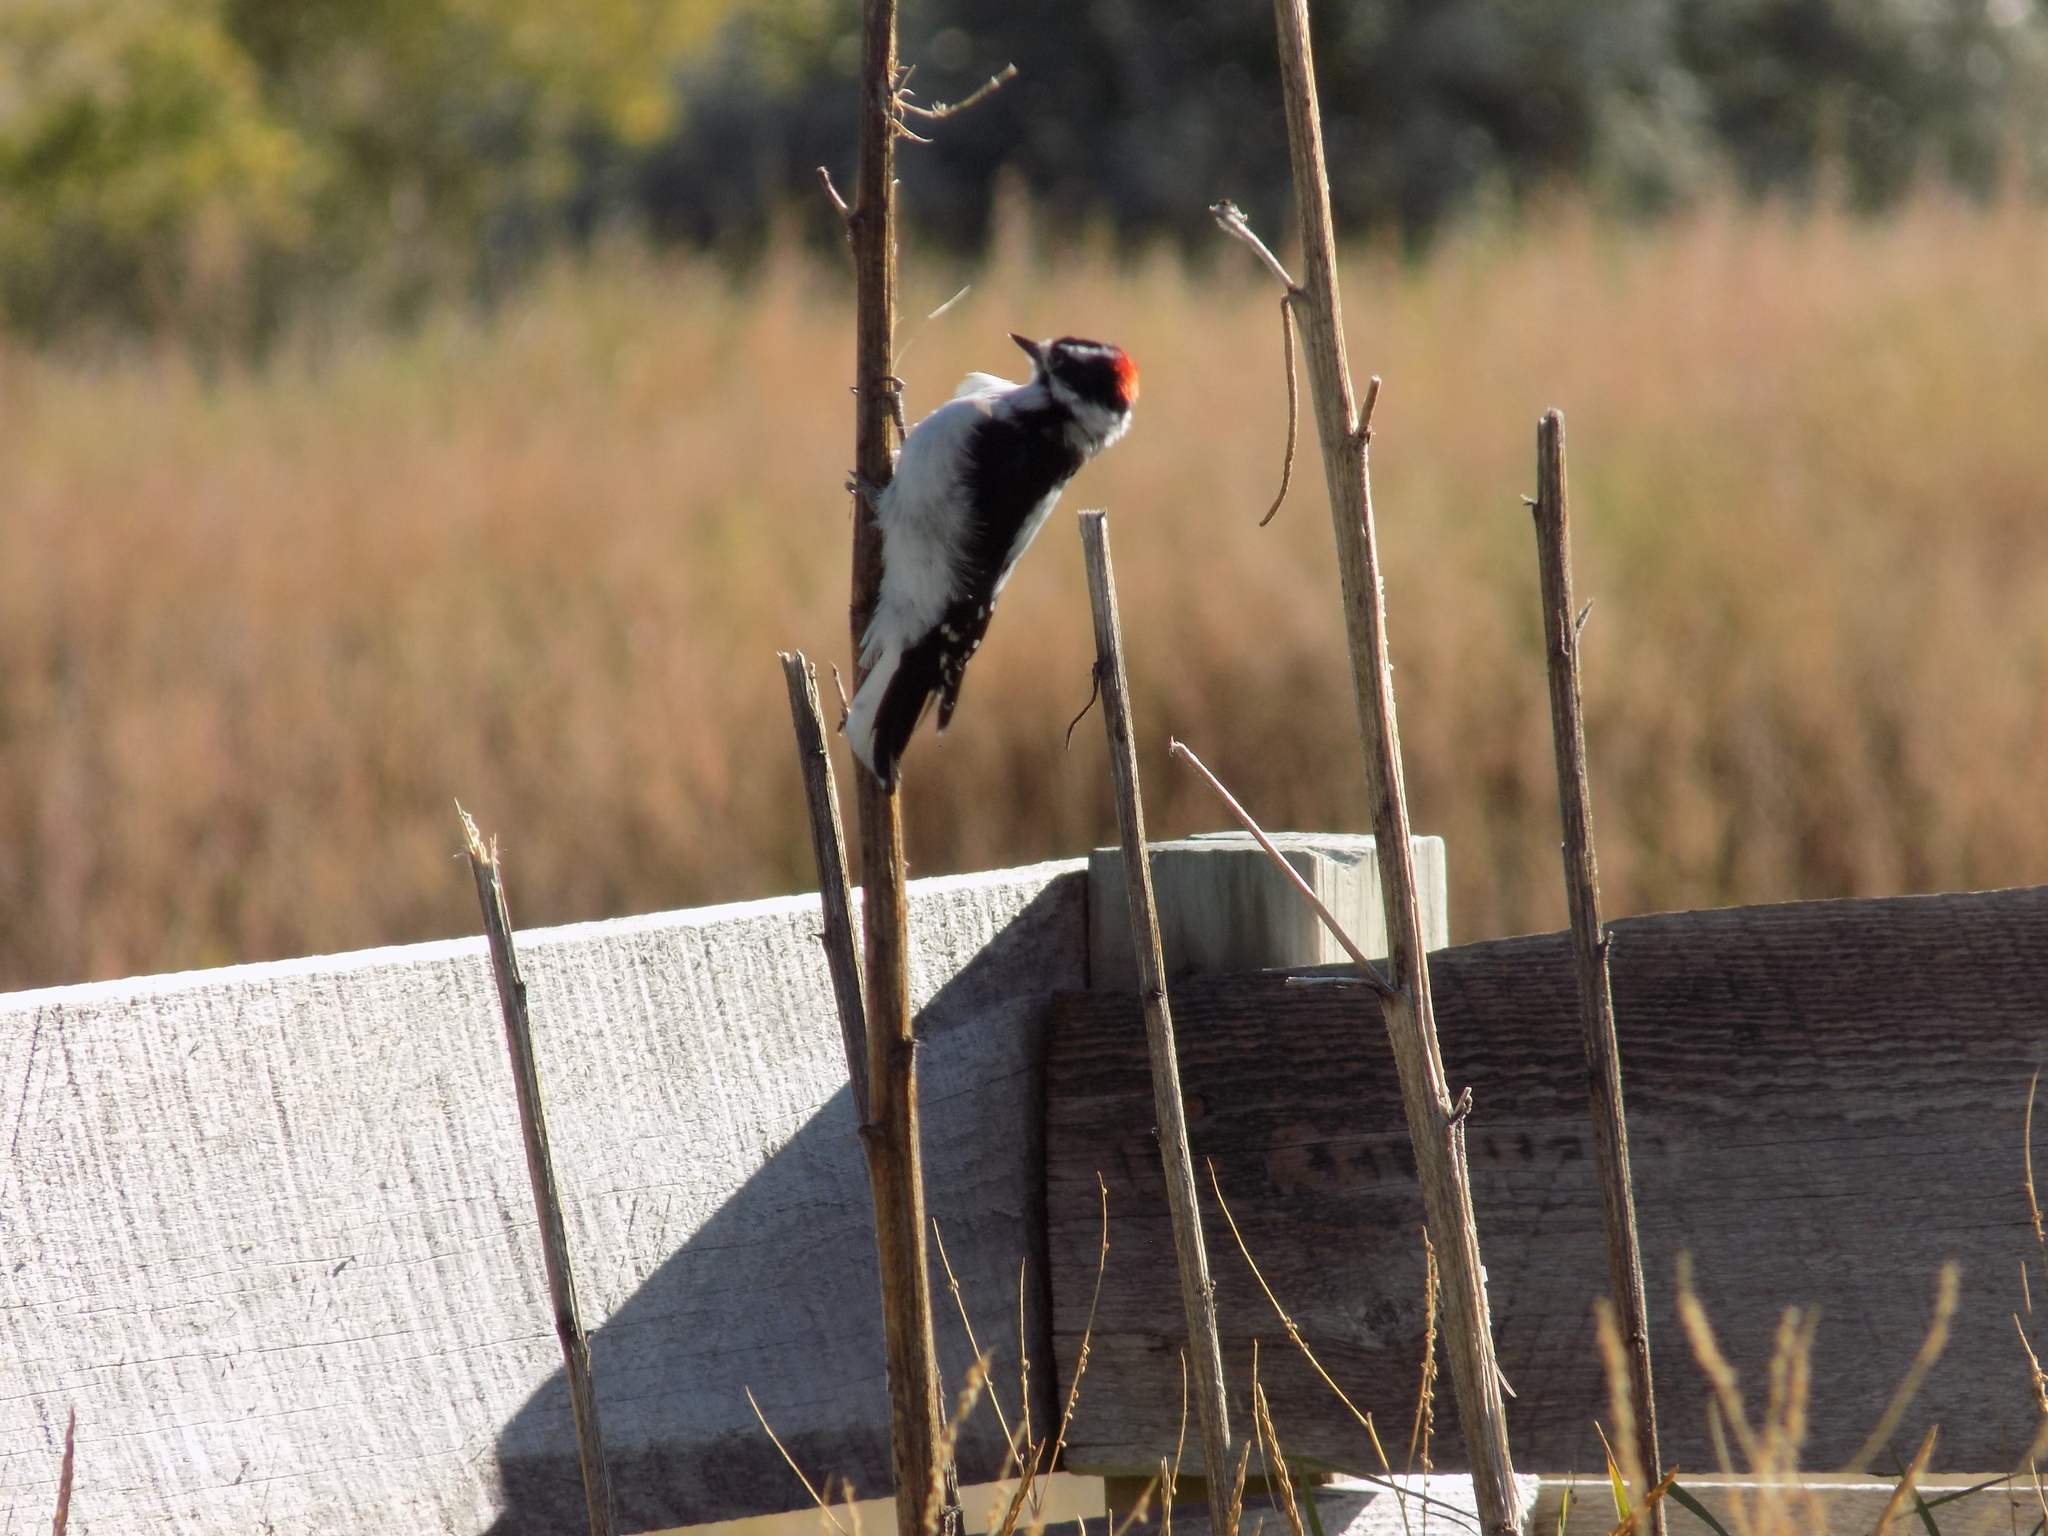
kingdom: Animalia
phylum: Chordata
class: Aves
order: Piciformes
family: Picidae
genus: Dryobates
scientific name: Dryobates pubescens
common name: Downy woodpecker
